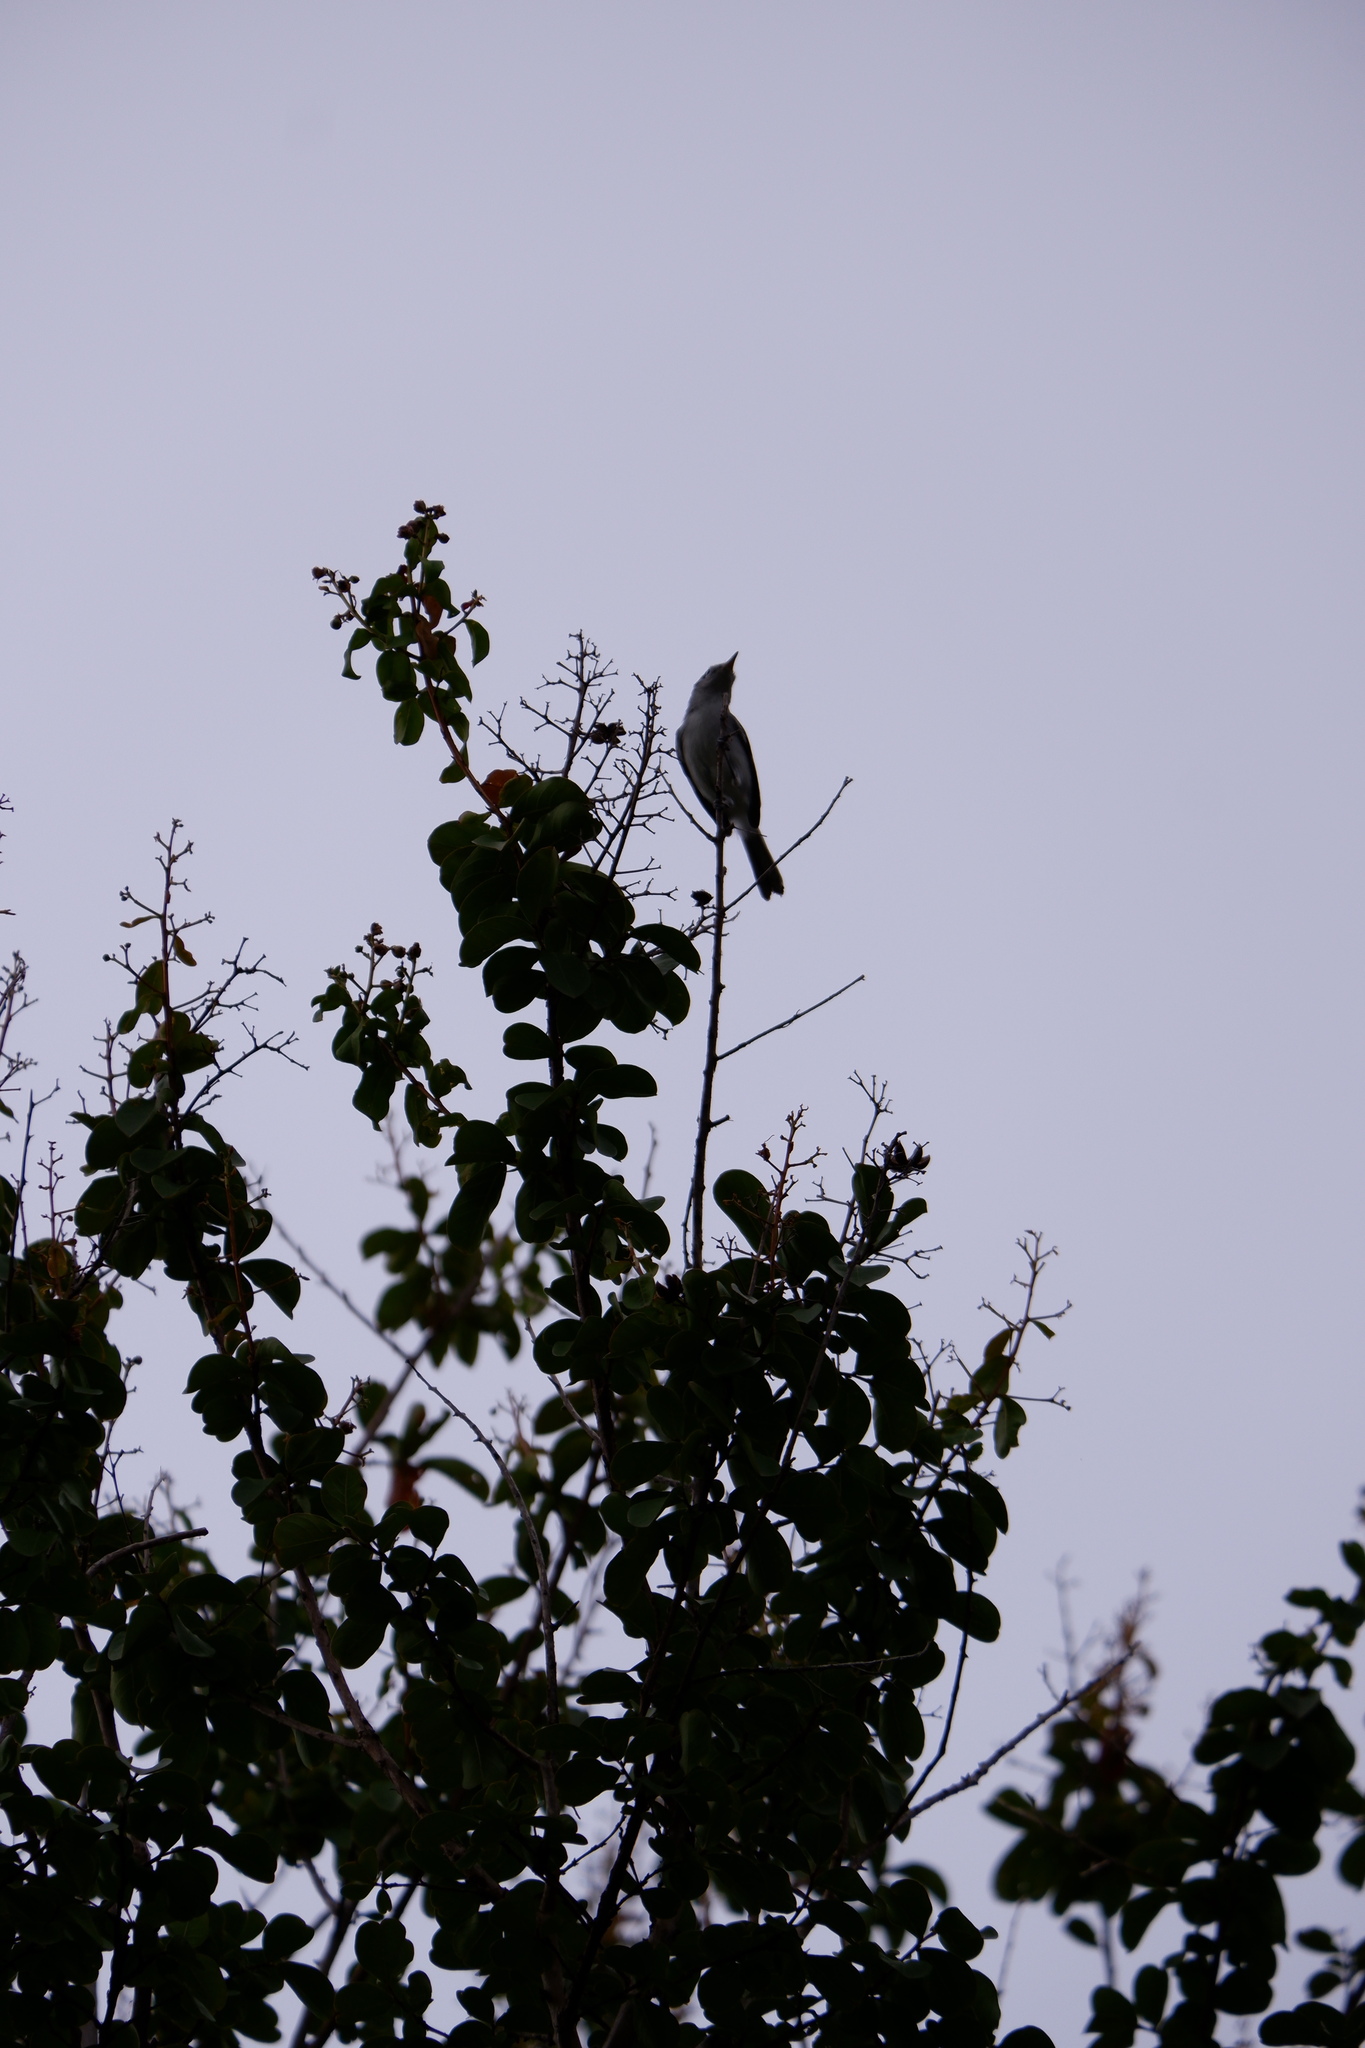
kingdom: Animalia
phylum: Chordata
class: Aves
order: Passeriformes
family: Polioptilidae
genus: Polioptila
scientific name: Polioptila caerulea
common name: Blue-gray gnatcatcher
